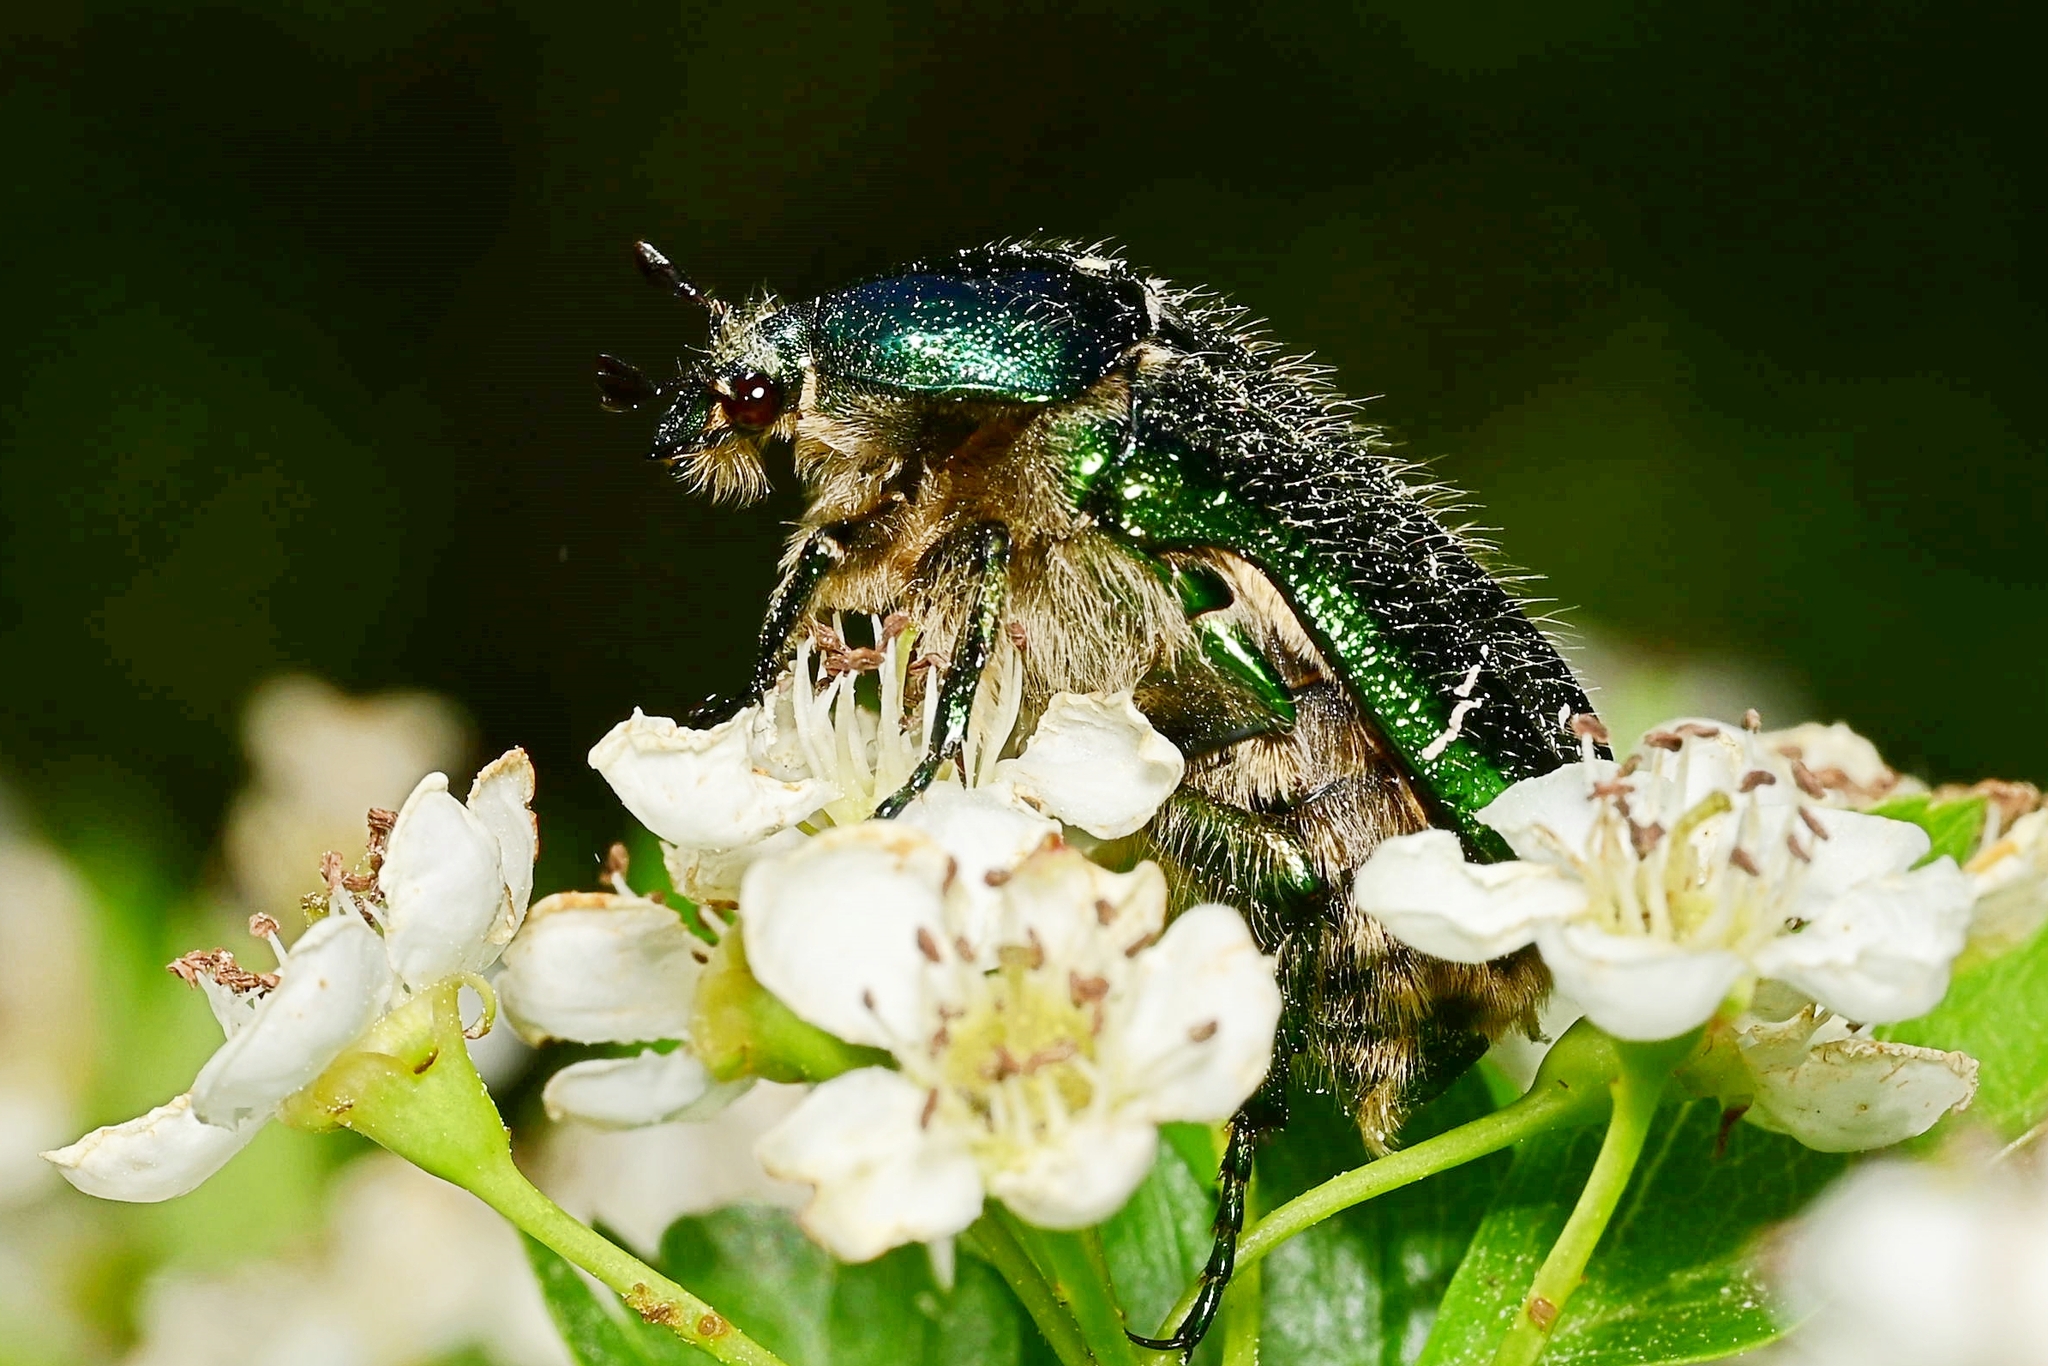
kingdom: Animalia
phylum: Arthropoda
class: Insecta
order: Coleoptera
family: Scarabaeidae
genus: Cetonia
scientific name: Cetonia aurata
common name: Rose chafer
